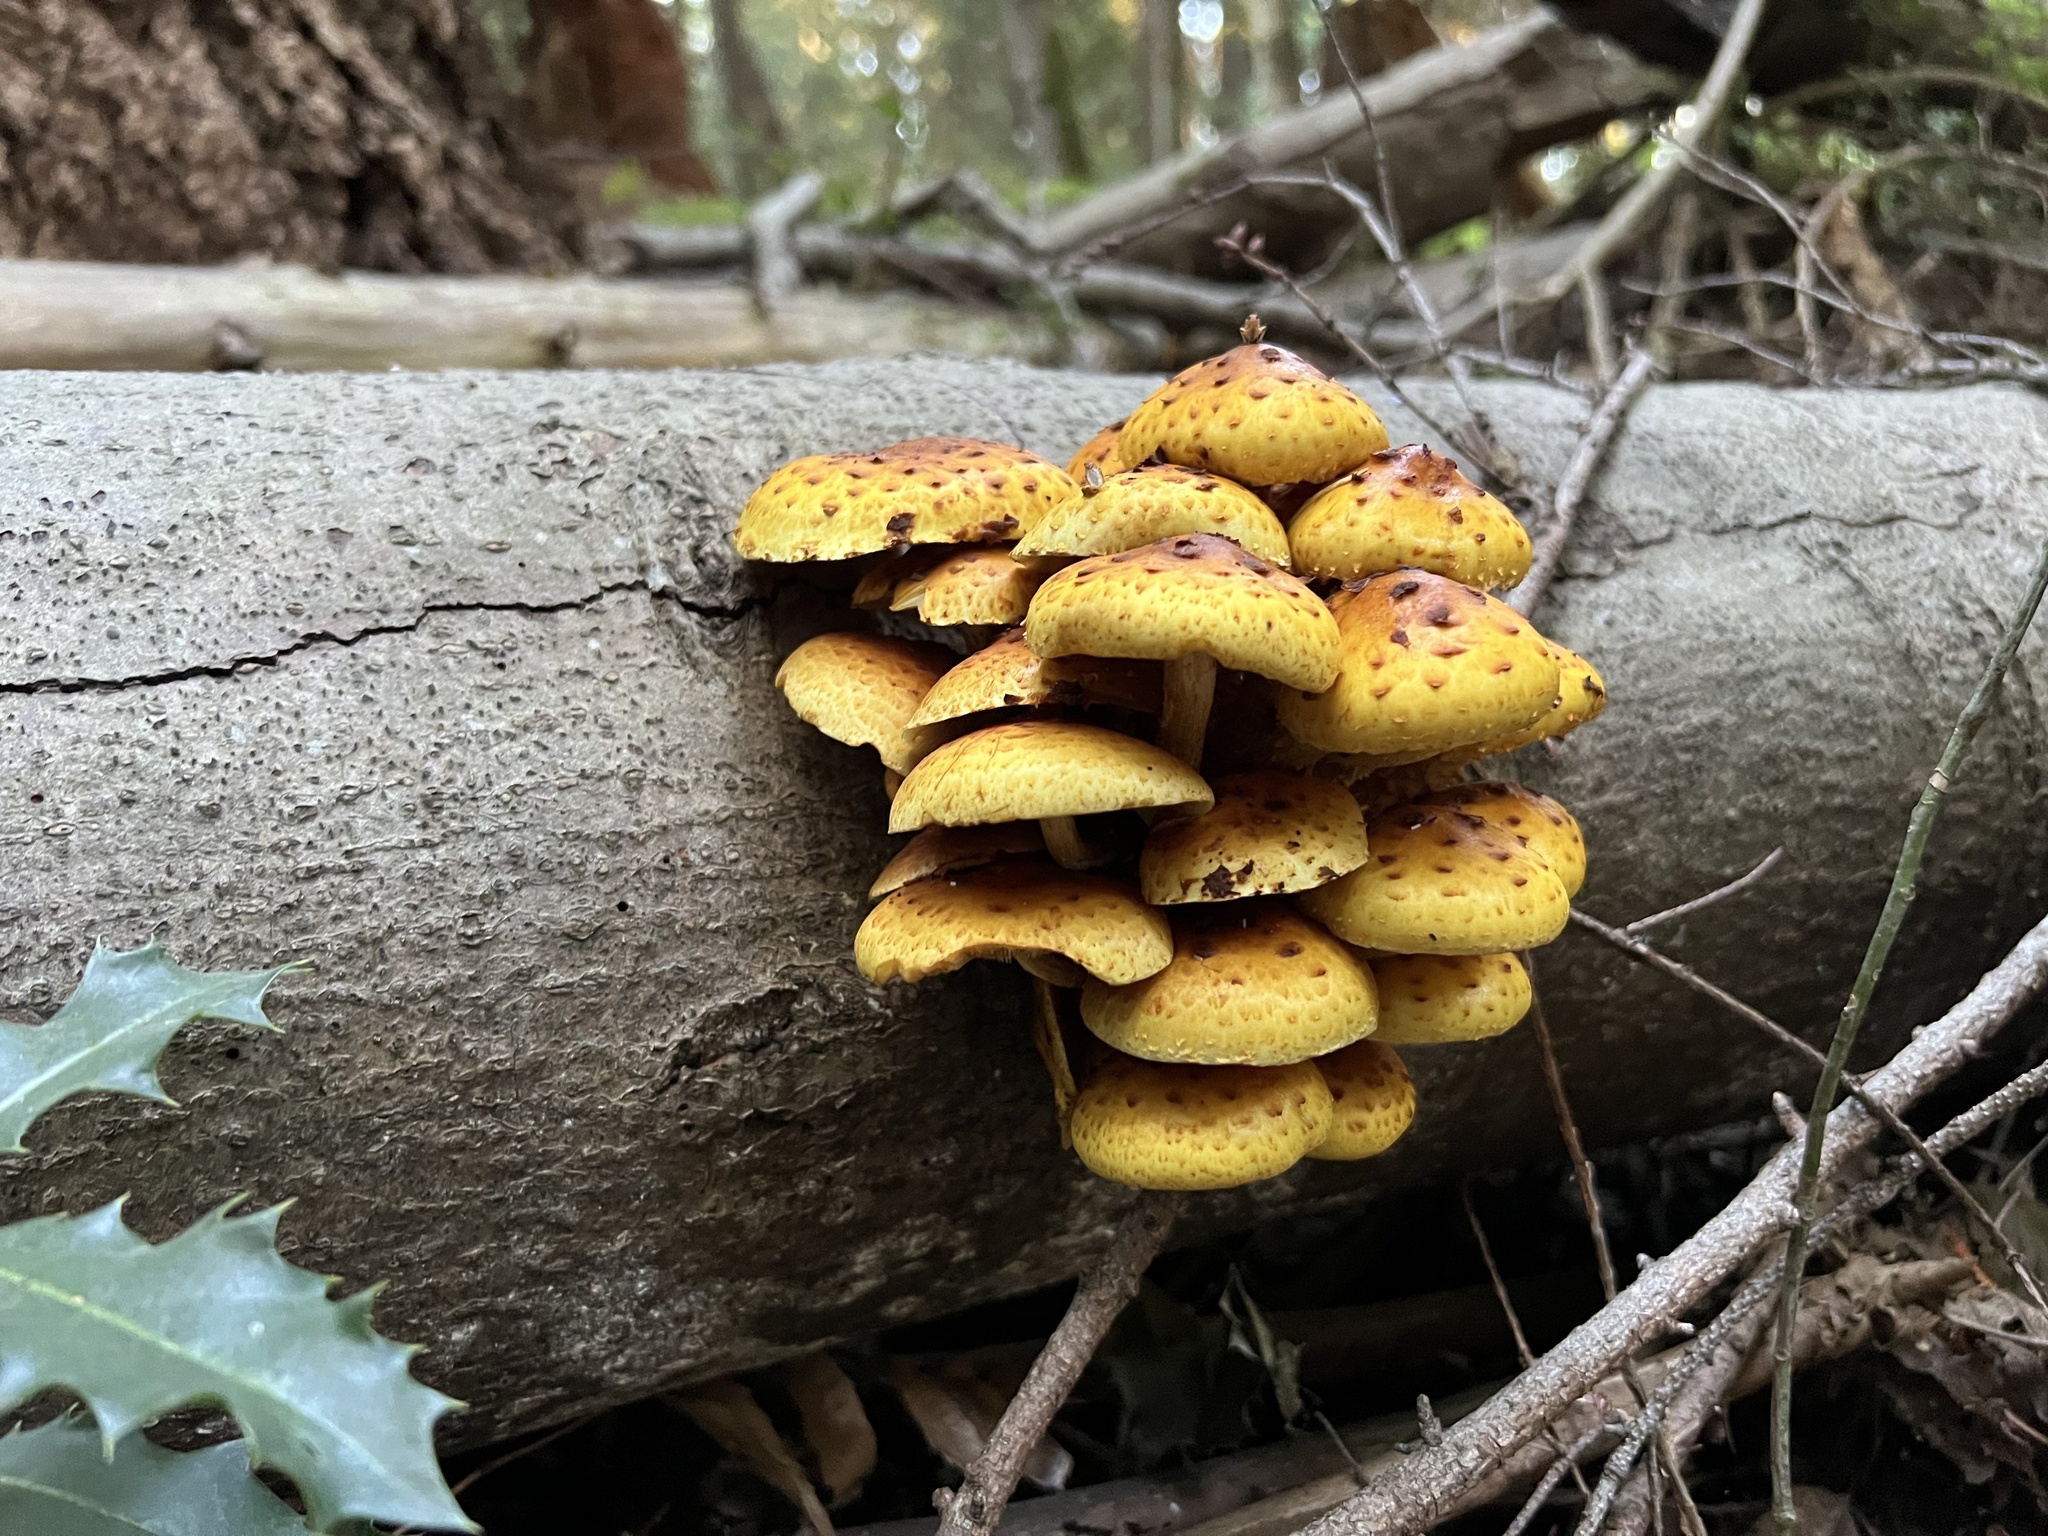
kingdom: Fungi
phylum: Basidiomycota
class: Agaricomycetes
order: Agaricales
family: Strophariaceae
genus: Pholiota
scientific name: Pholiota aurivella
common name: Golden scalycap
